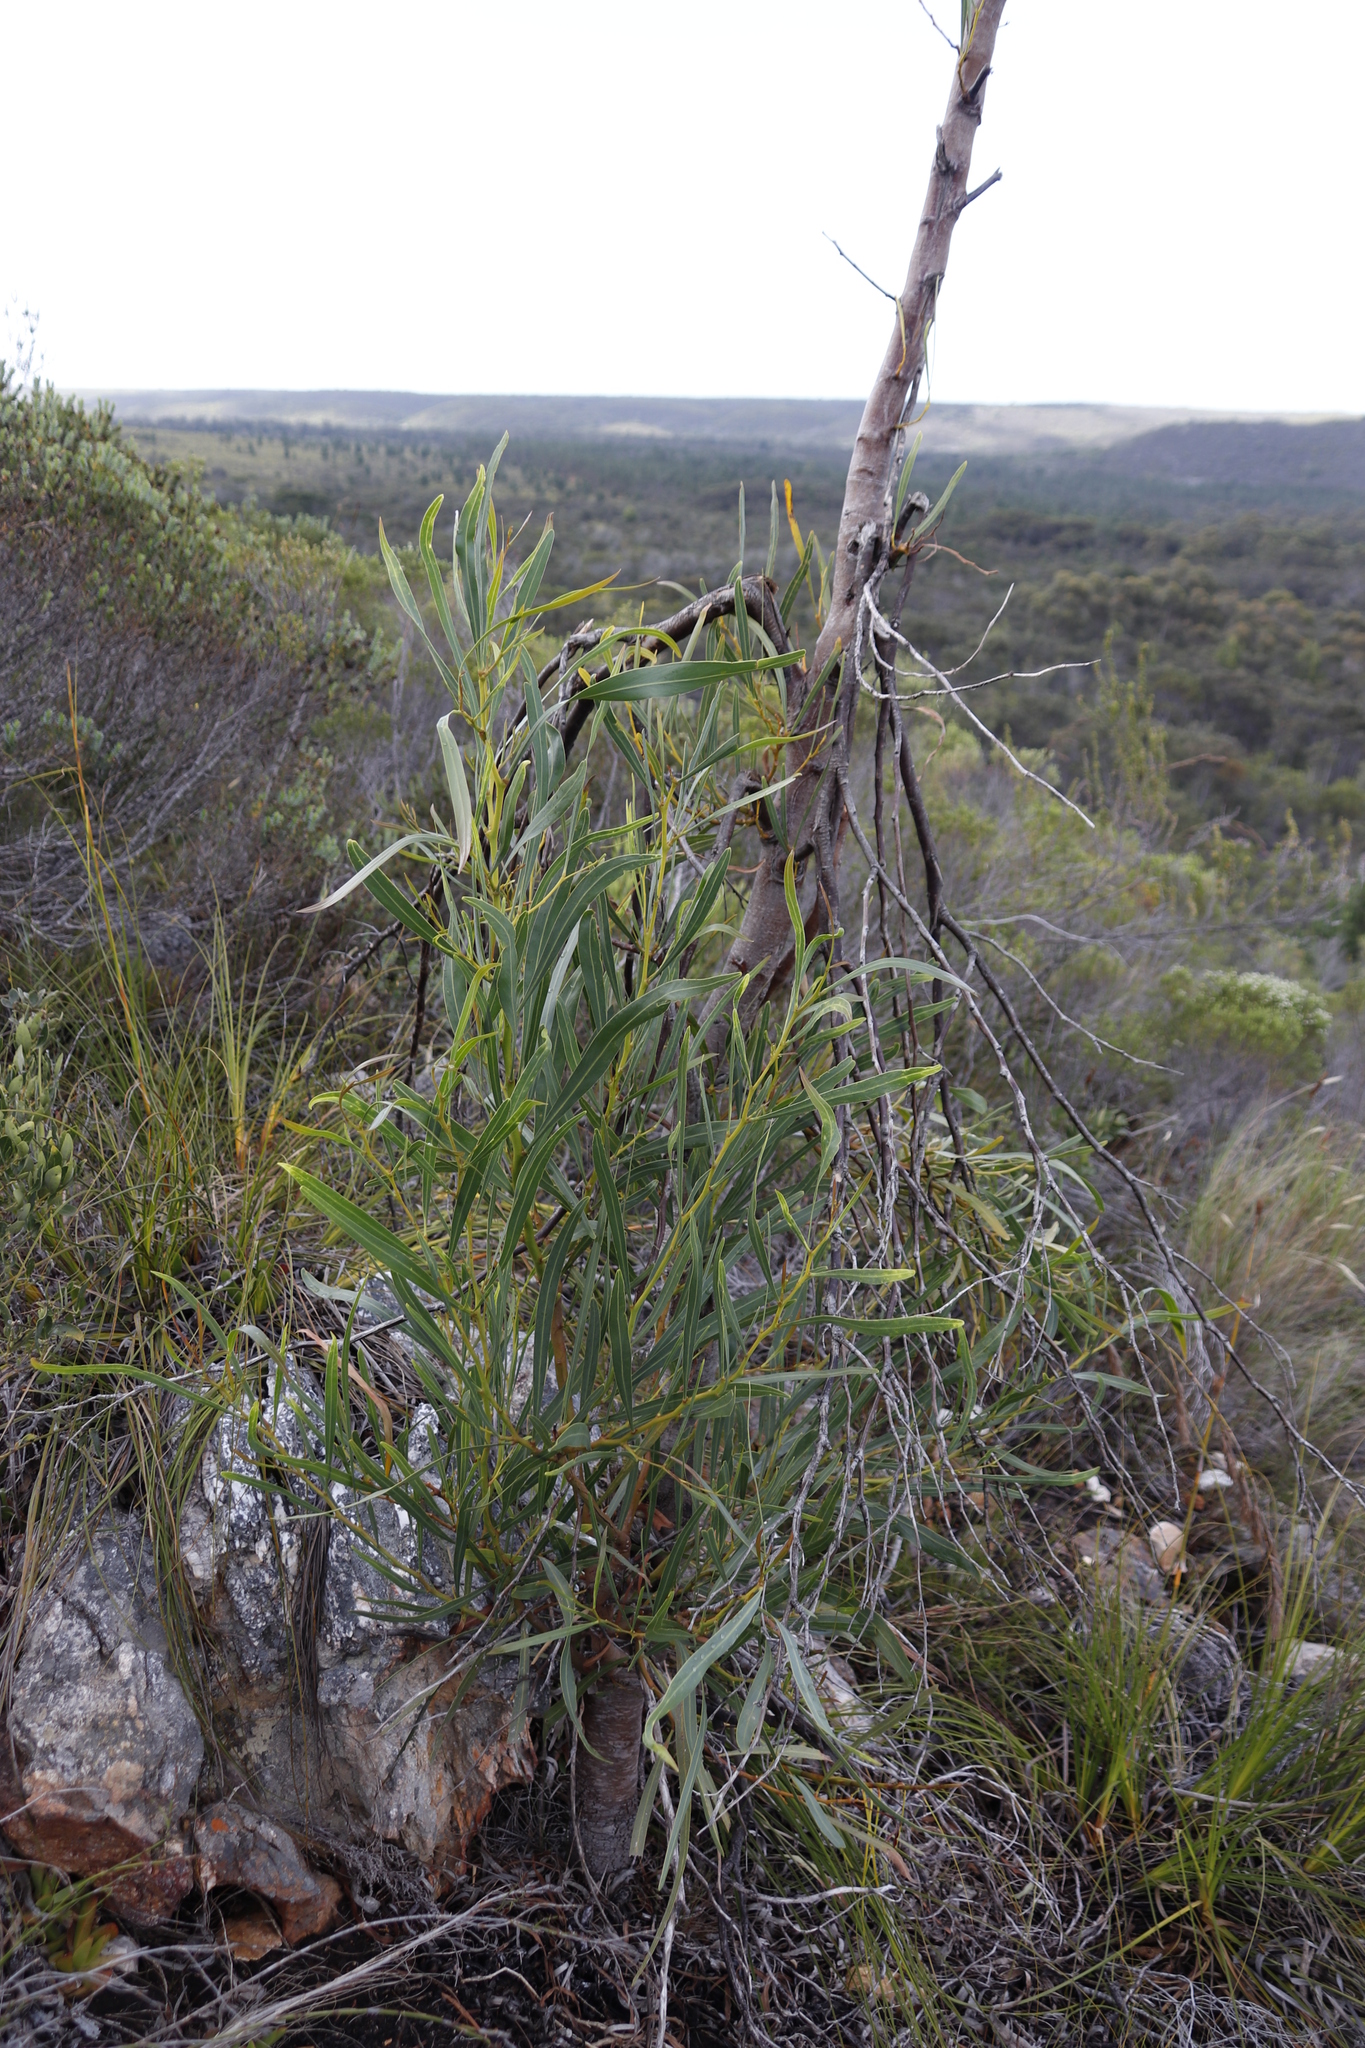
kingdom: Plantae
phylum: Tracheophyta
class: Magnoliopsida
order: Fabales
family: Fabaceae
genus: Acacia
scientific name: Acacia saligna
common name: Orange wattle
